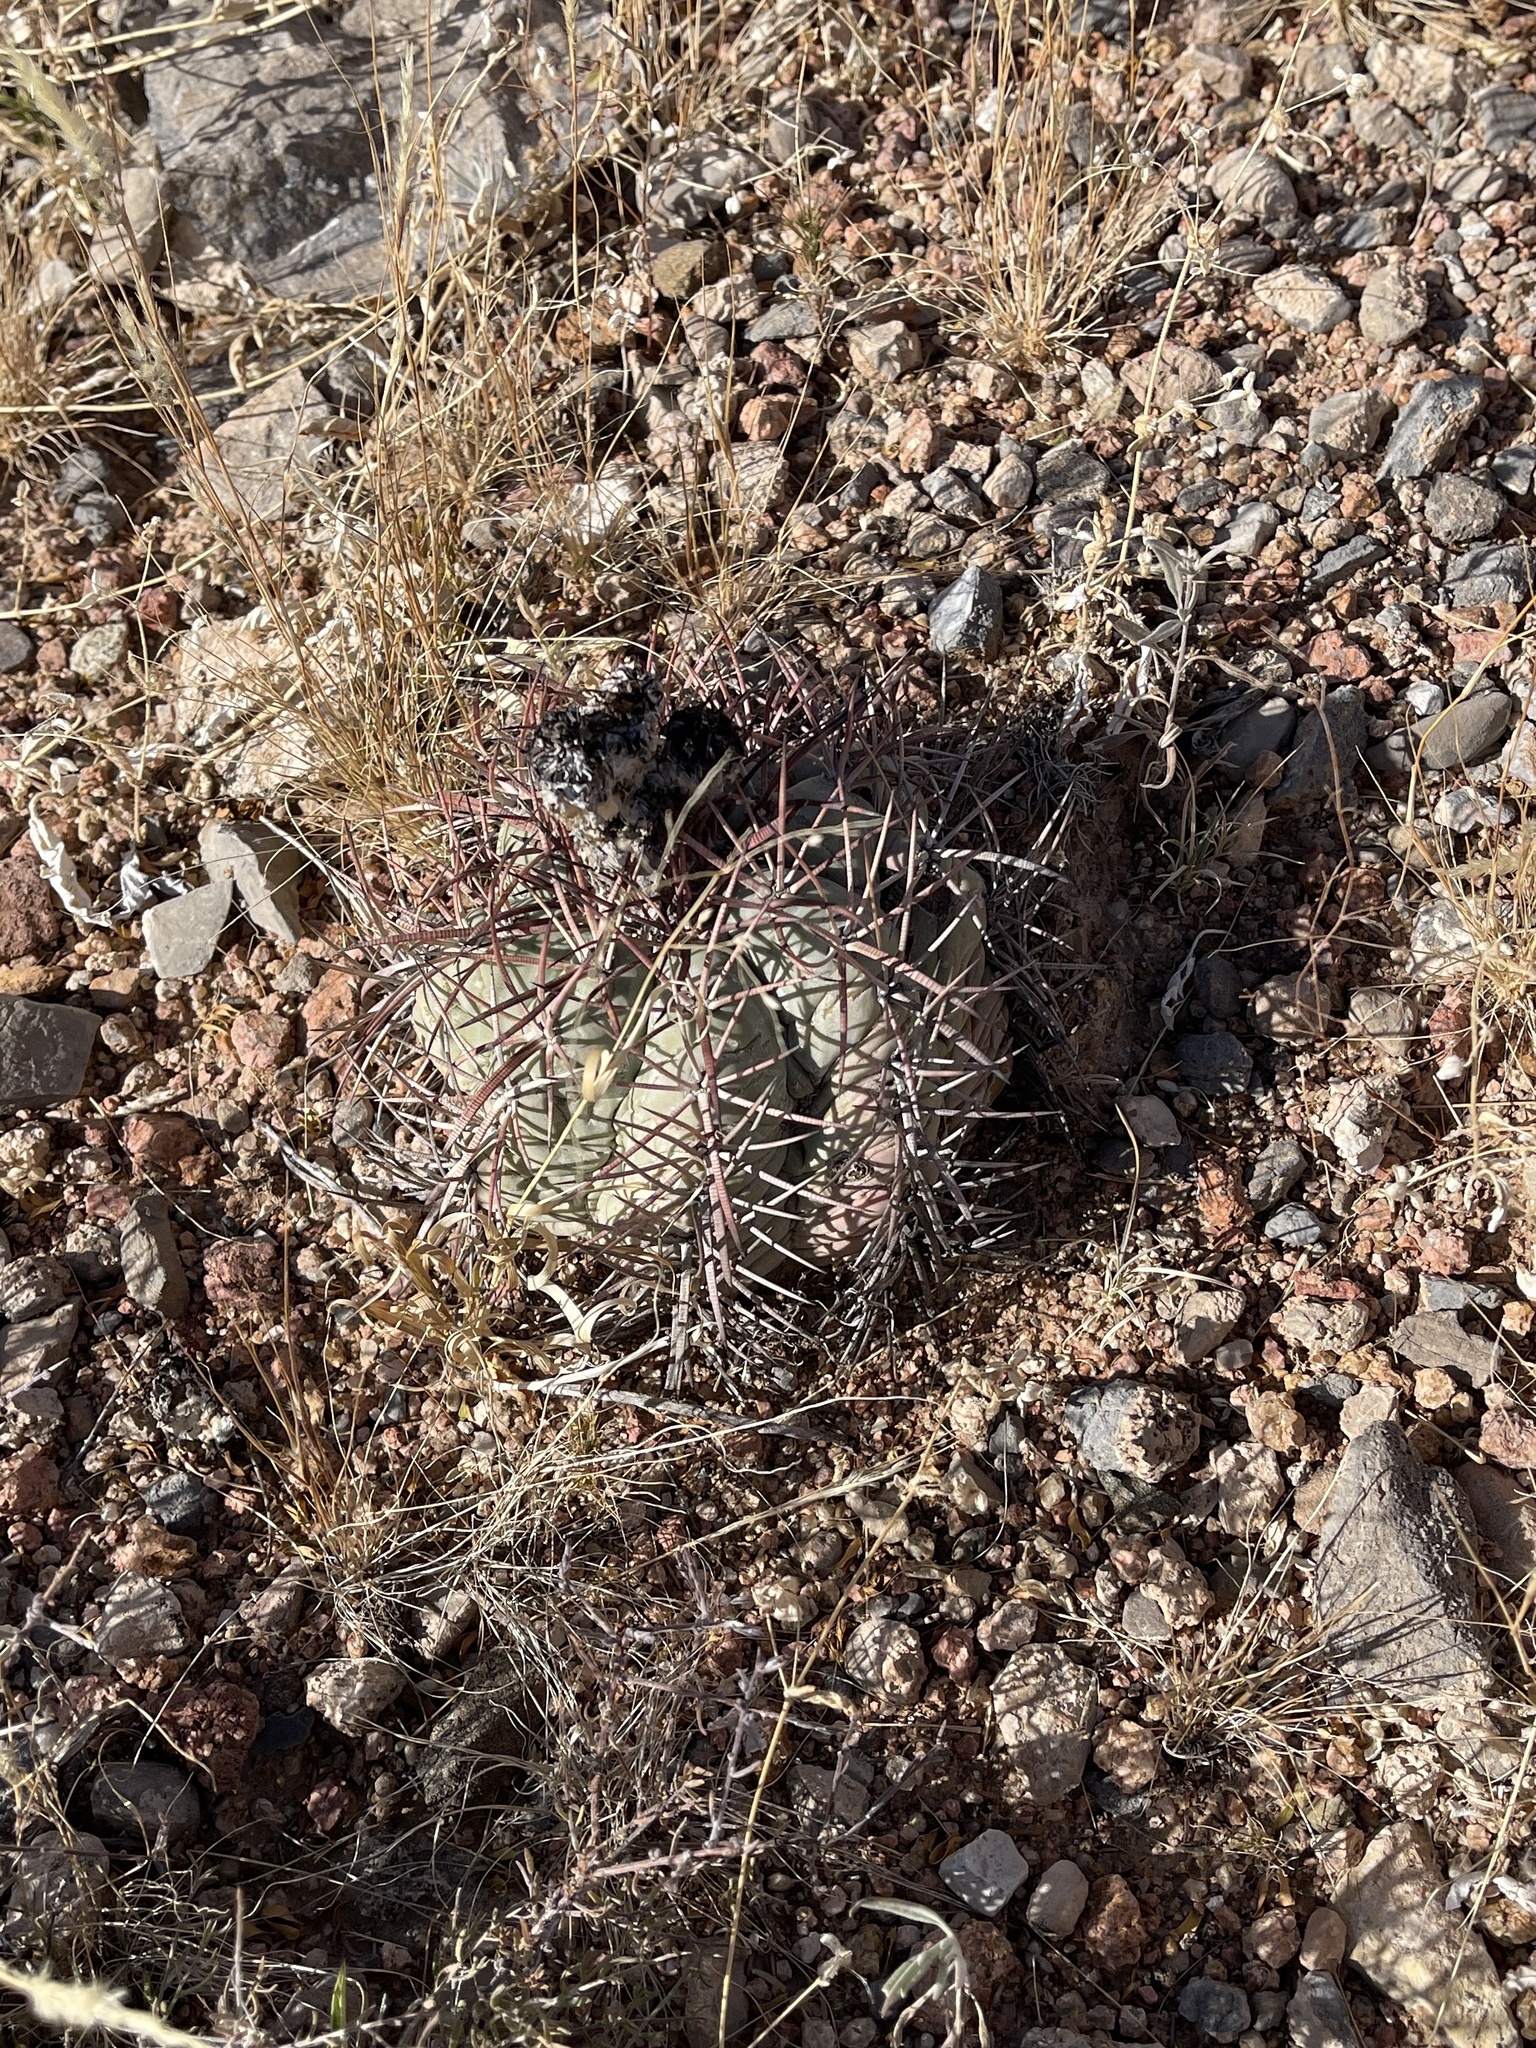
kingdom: Plantae
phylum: Tracheophyta
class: Magnoliopsida
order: Caryophyllales
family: Cactaceae
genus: Echinocactus
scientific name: Echinocactus horizonthalonius
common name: Devilshead
